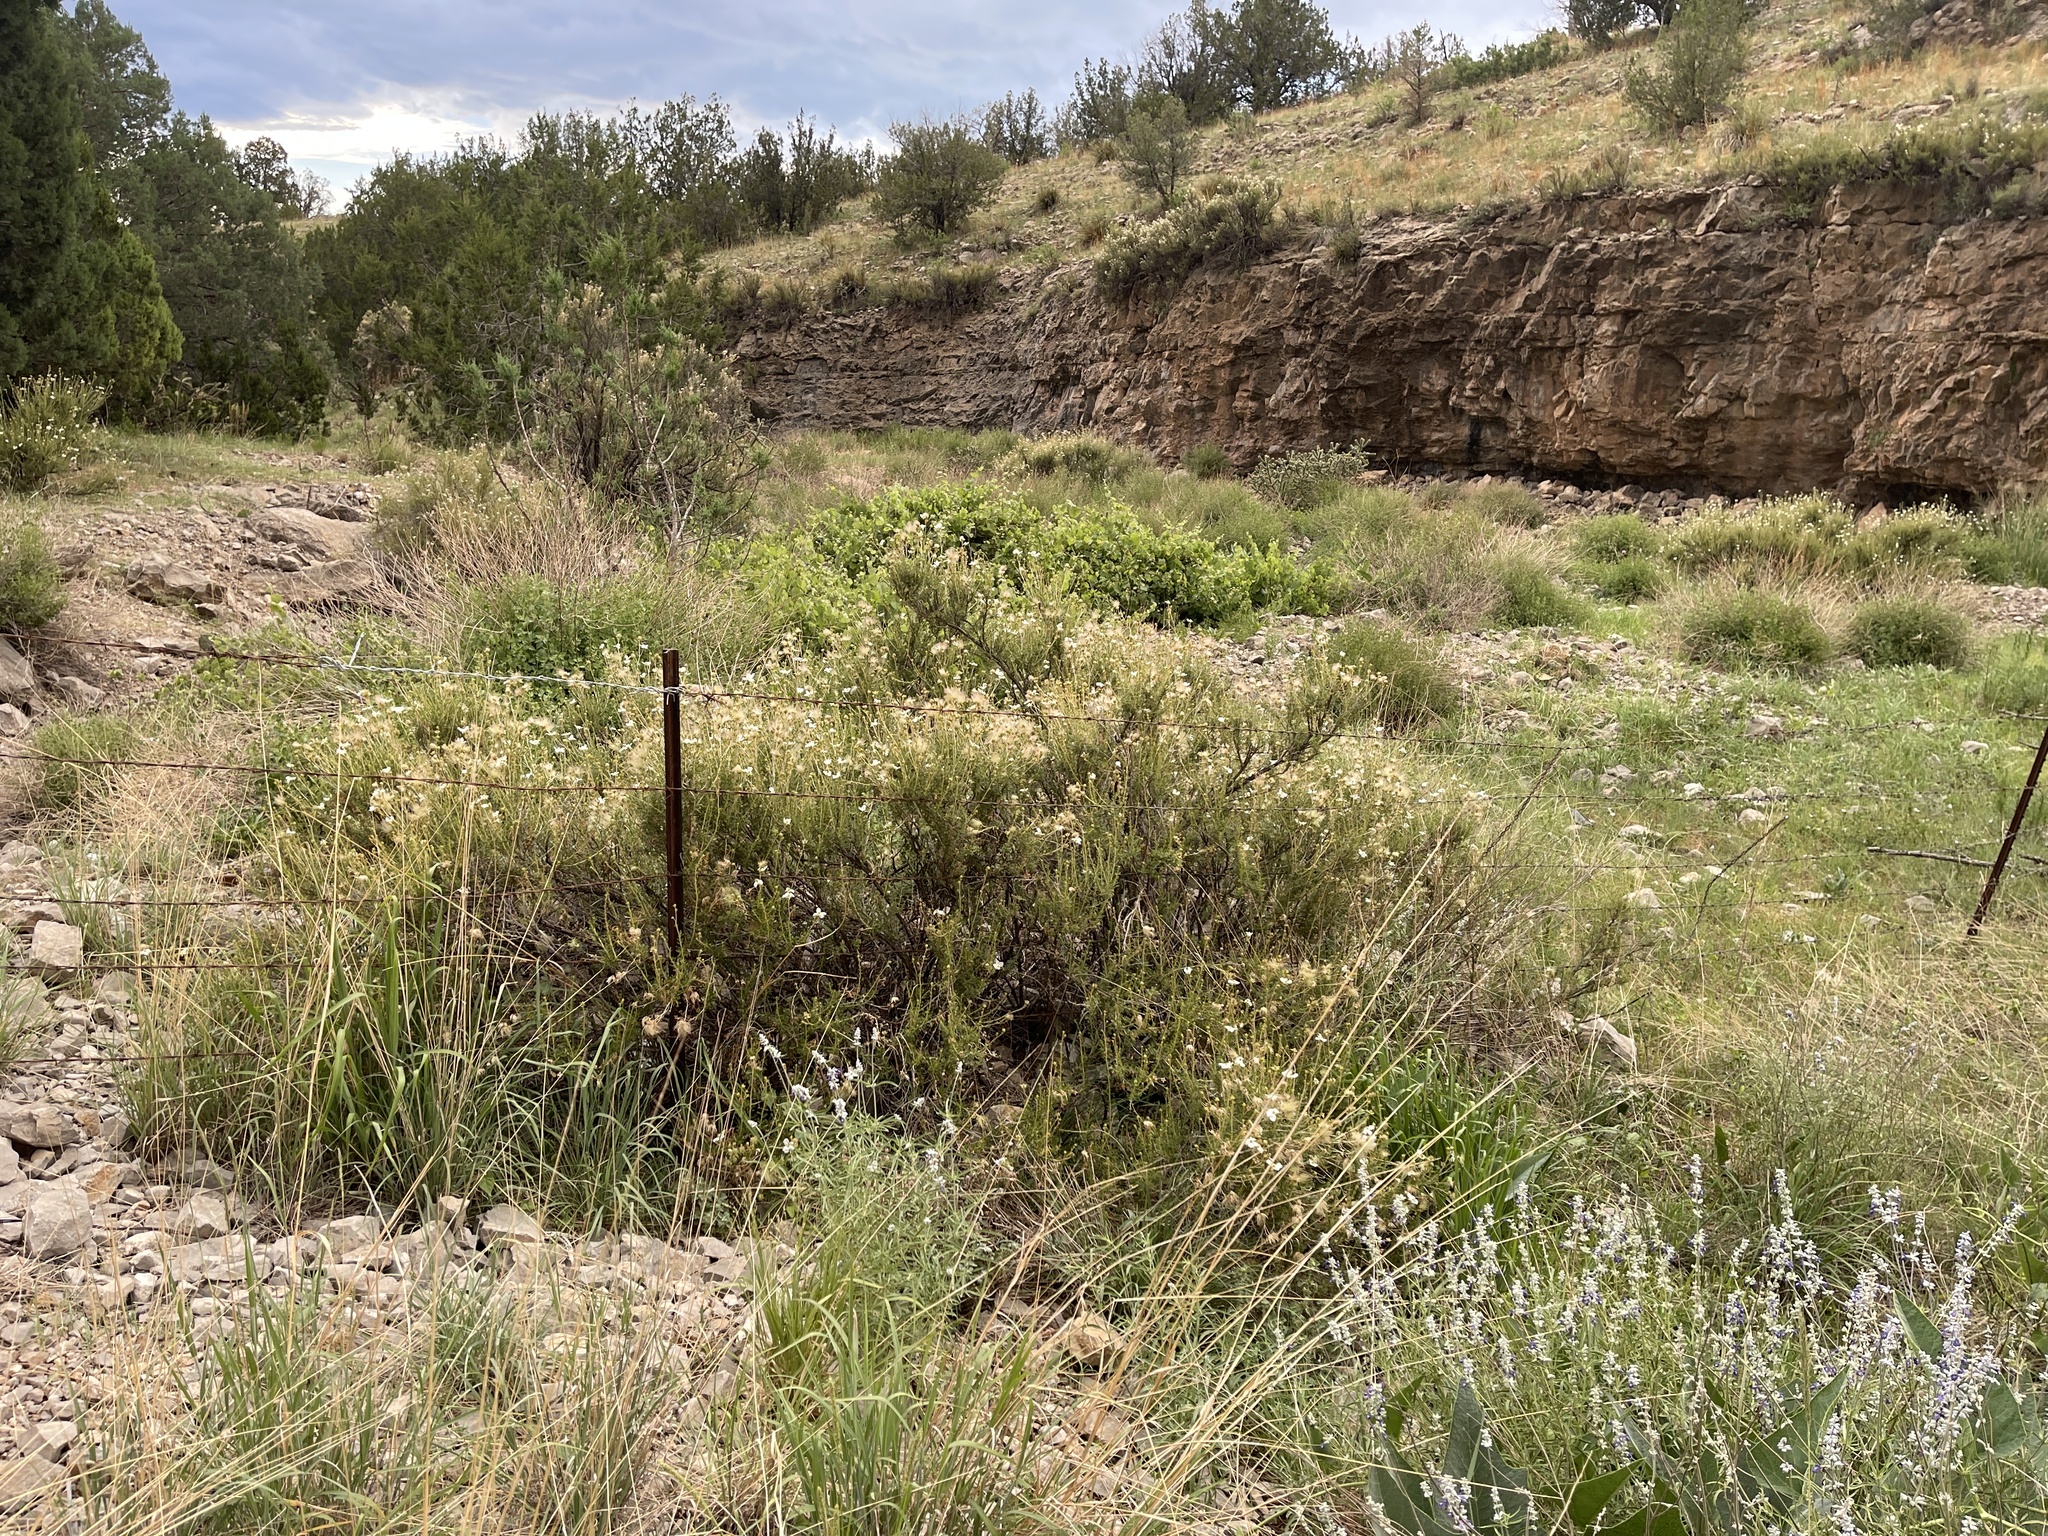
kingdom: Plantae
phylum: Tracheophyta
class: Magnoliopsida
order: Rosales
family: Rosaceae
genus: Fallugia
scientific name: Fallugia paradoxa
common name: Apache-plume
